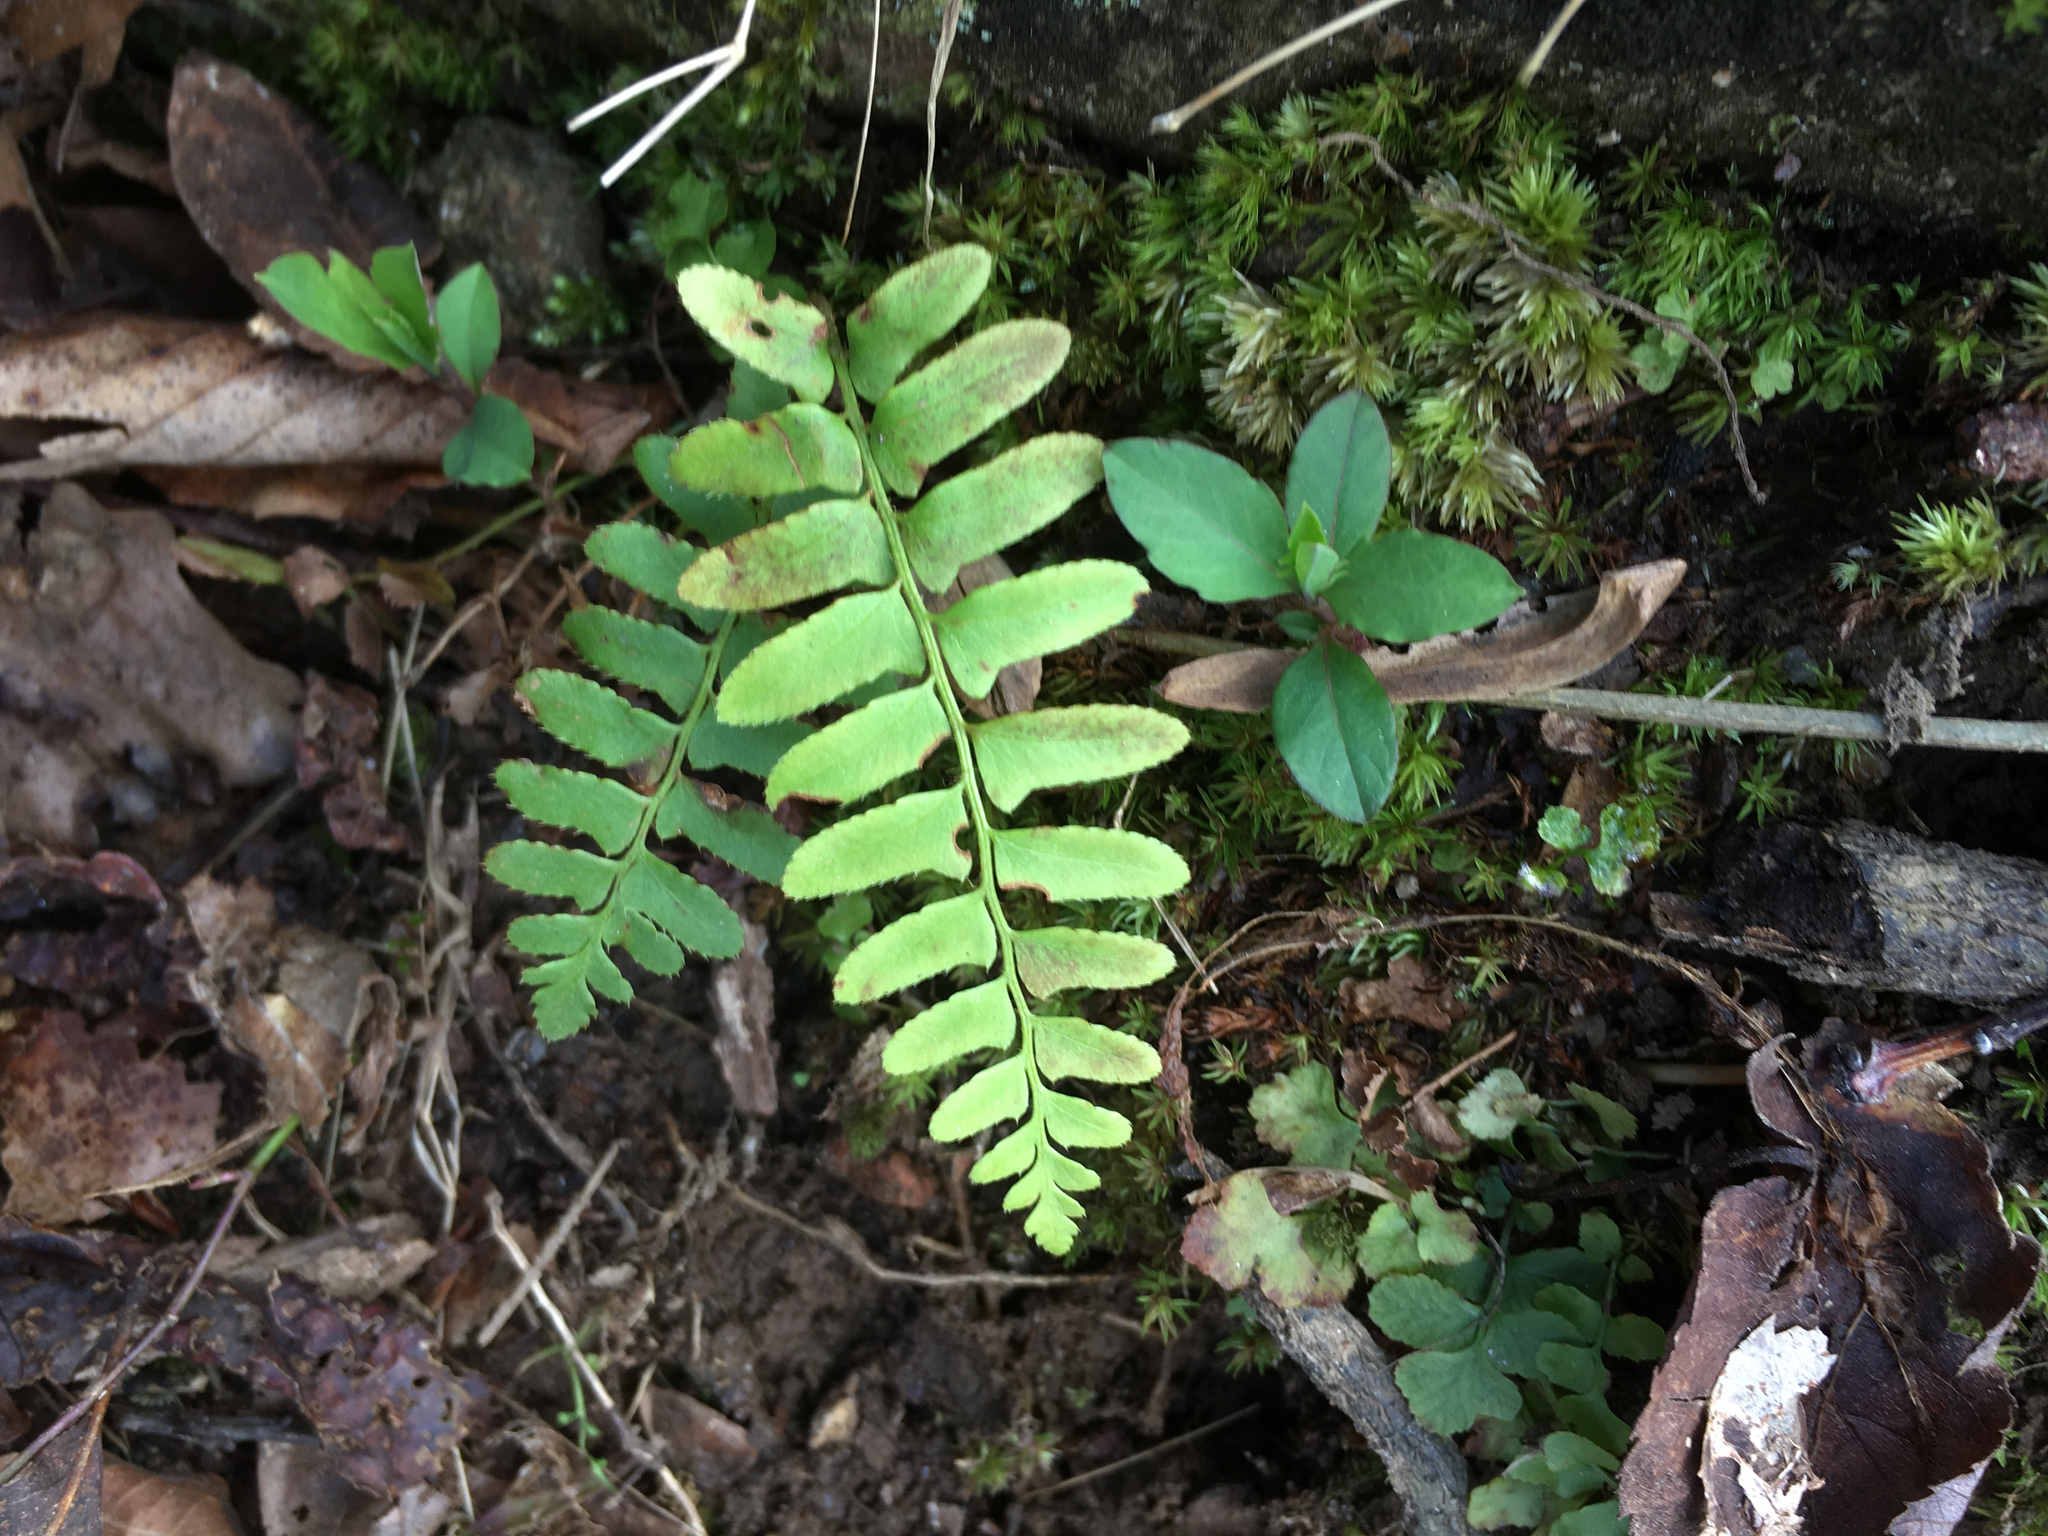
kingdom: Plantae
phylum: Tracheophyta
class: Polypodiopsida
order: Polypodiales
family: Dryopteridaceae
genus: Polystichum
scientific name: Polystichum acrostichoides
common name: Christmas fern
